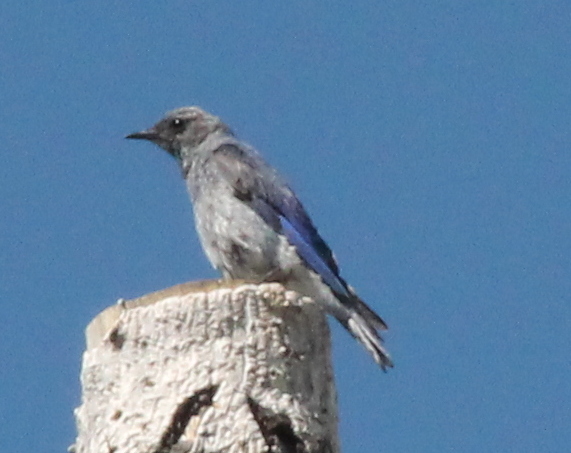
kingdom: Animalia
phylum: Chordata
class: Aves
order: Passeriformes
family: Turdidae
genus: Sialia
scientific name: Sialia currucoides
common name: Mountain bluebird
